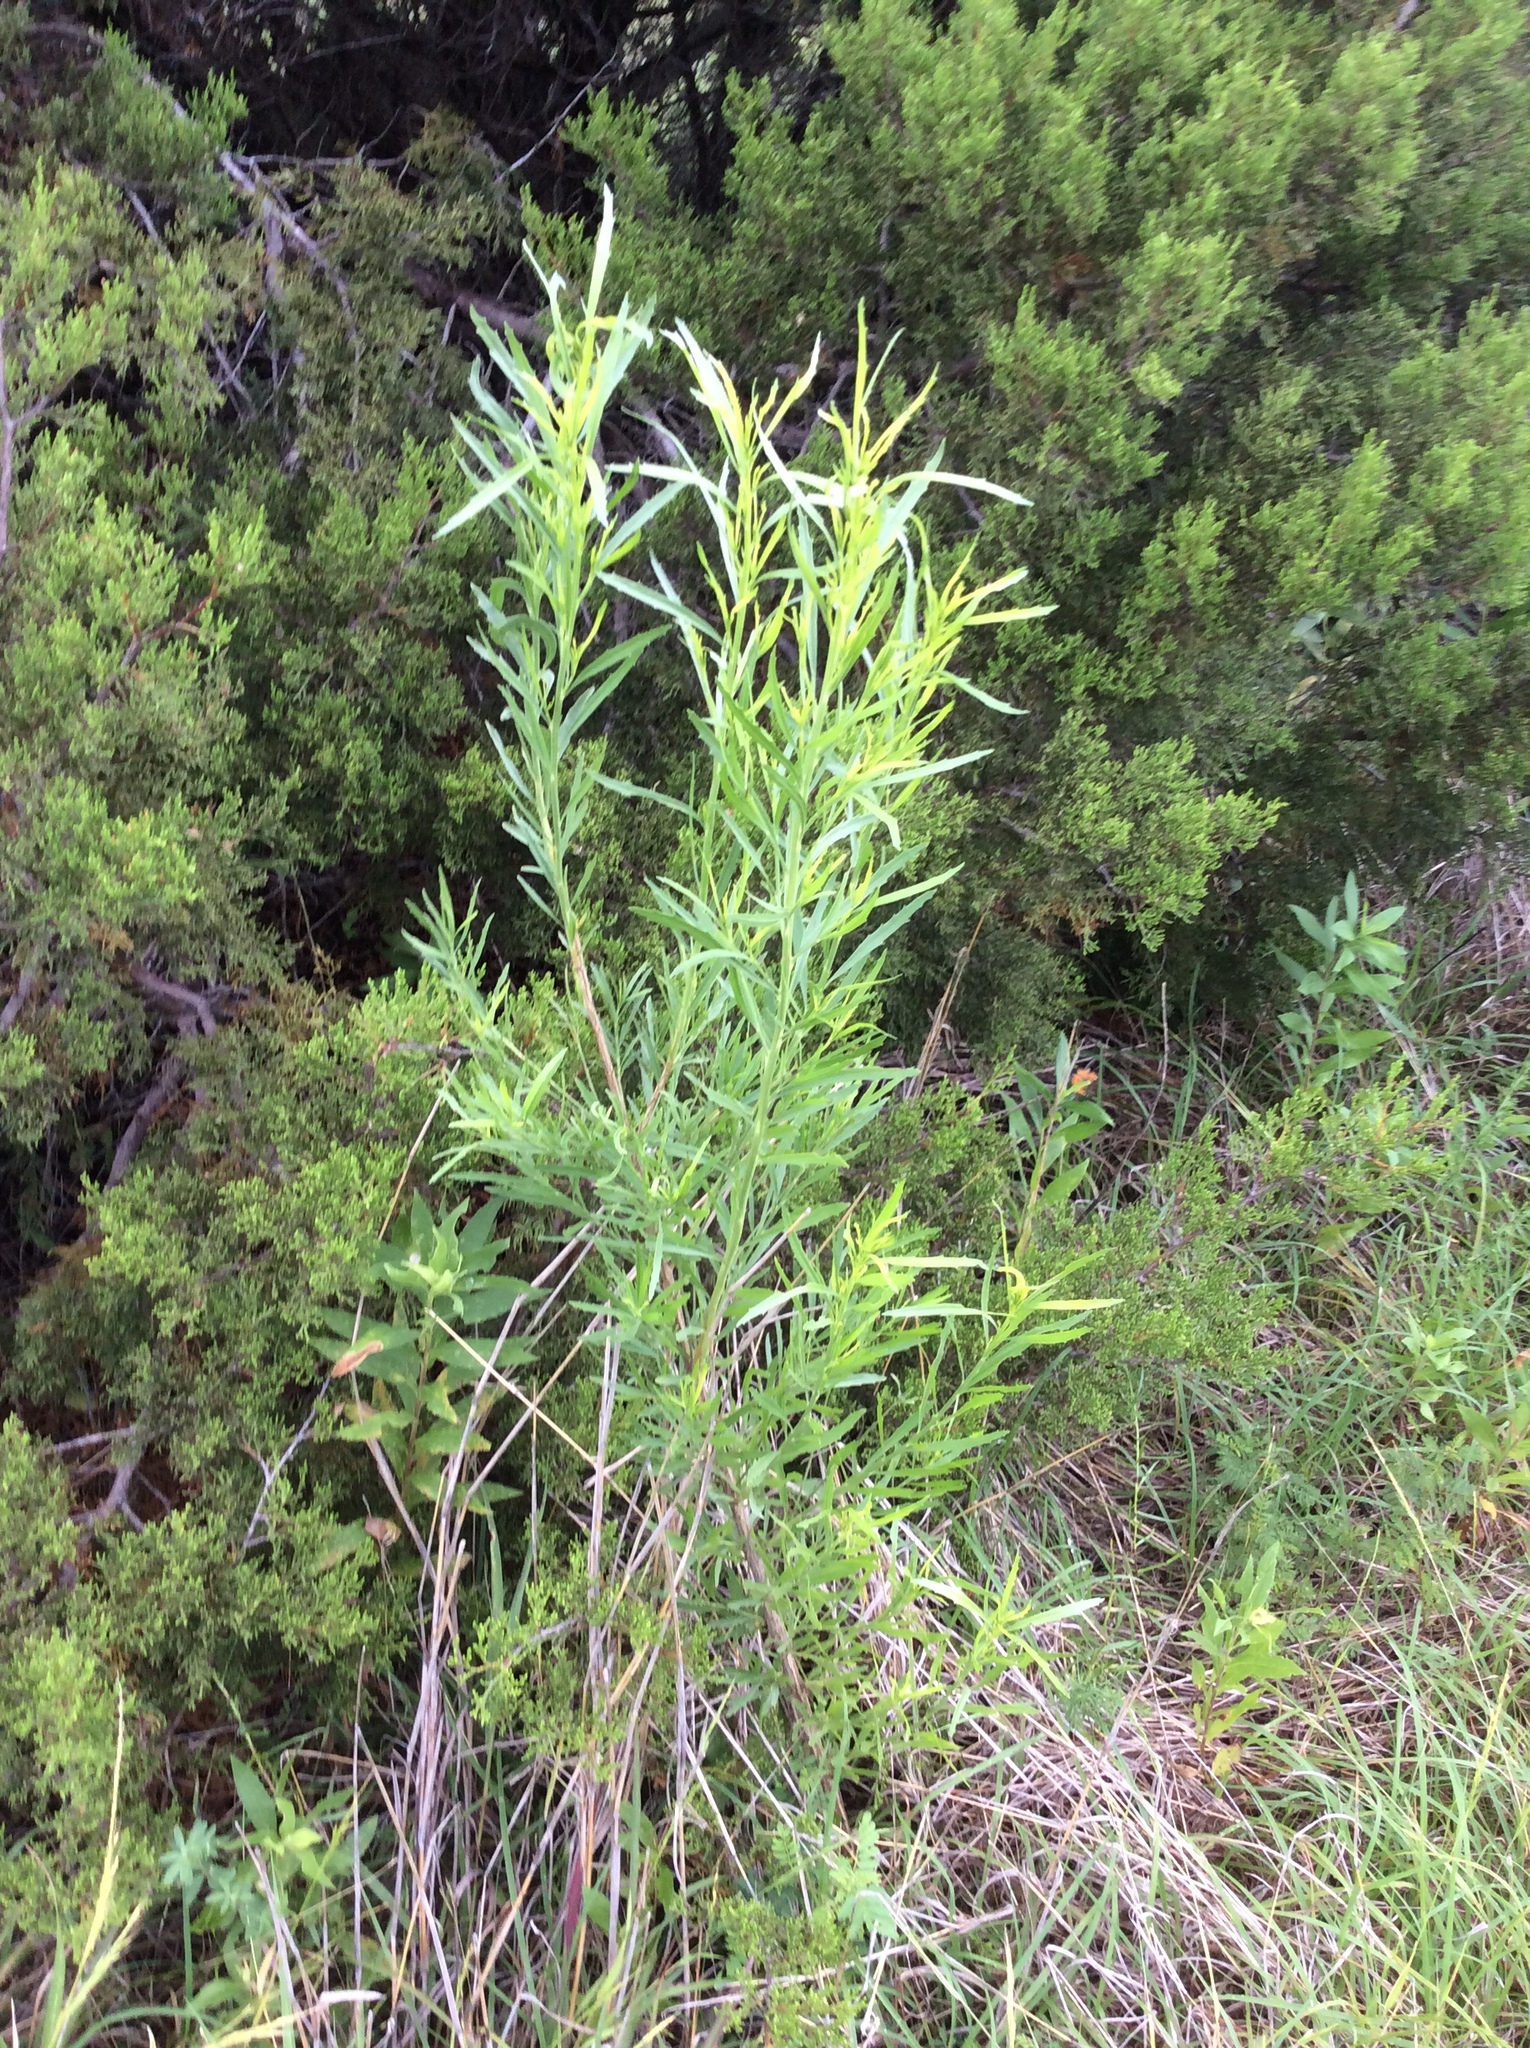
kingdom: Plantae
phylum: Tracheophyta
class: Magnoliopsida
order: Asterales
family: Asteraceae
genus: Baccharis
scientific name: Baccharis neglecta
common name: Roosevelt-weed
